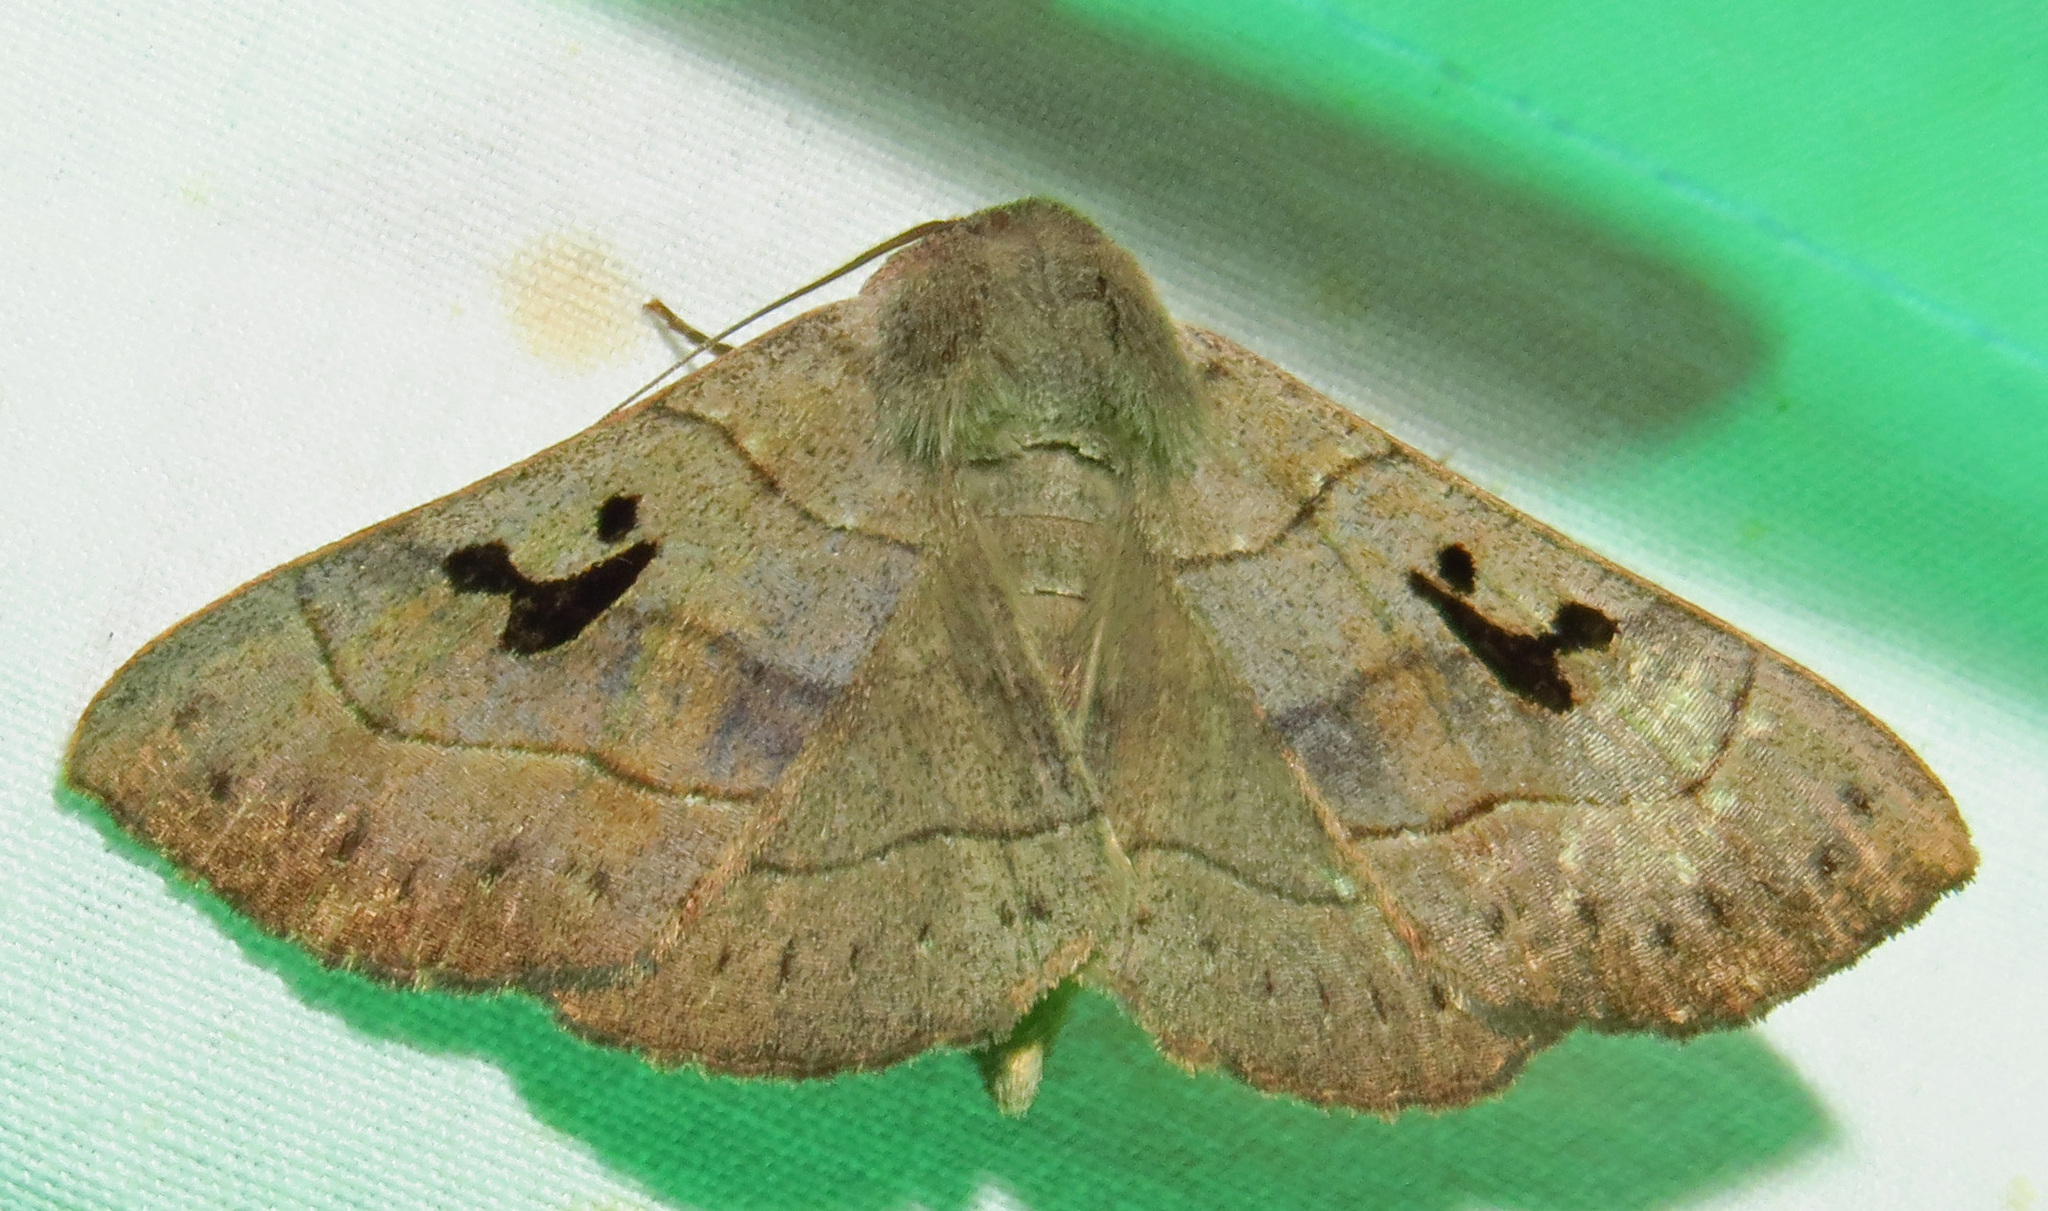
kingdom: Animalia
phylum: Arthropoda
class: Insecta
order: Lepidoptera
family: Erebidae
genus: Panopoda
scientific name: Panopoda carneicosta
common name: Brown panopoda moth
